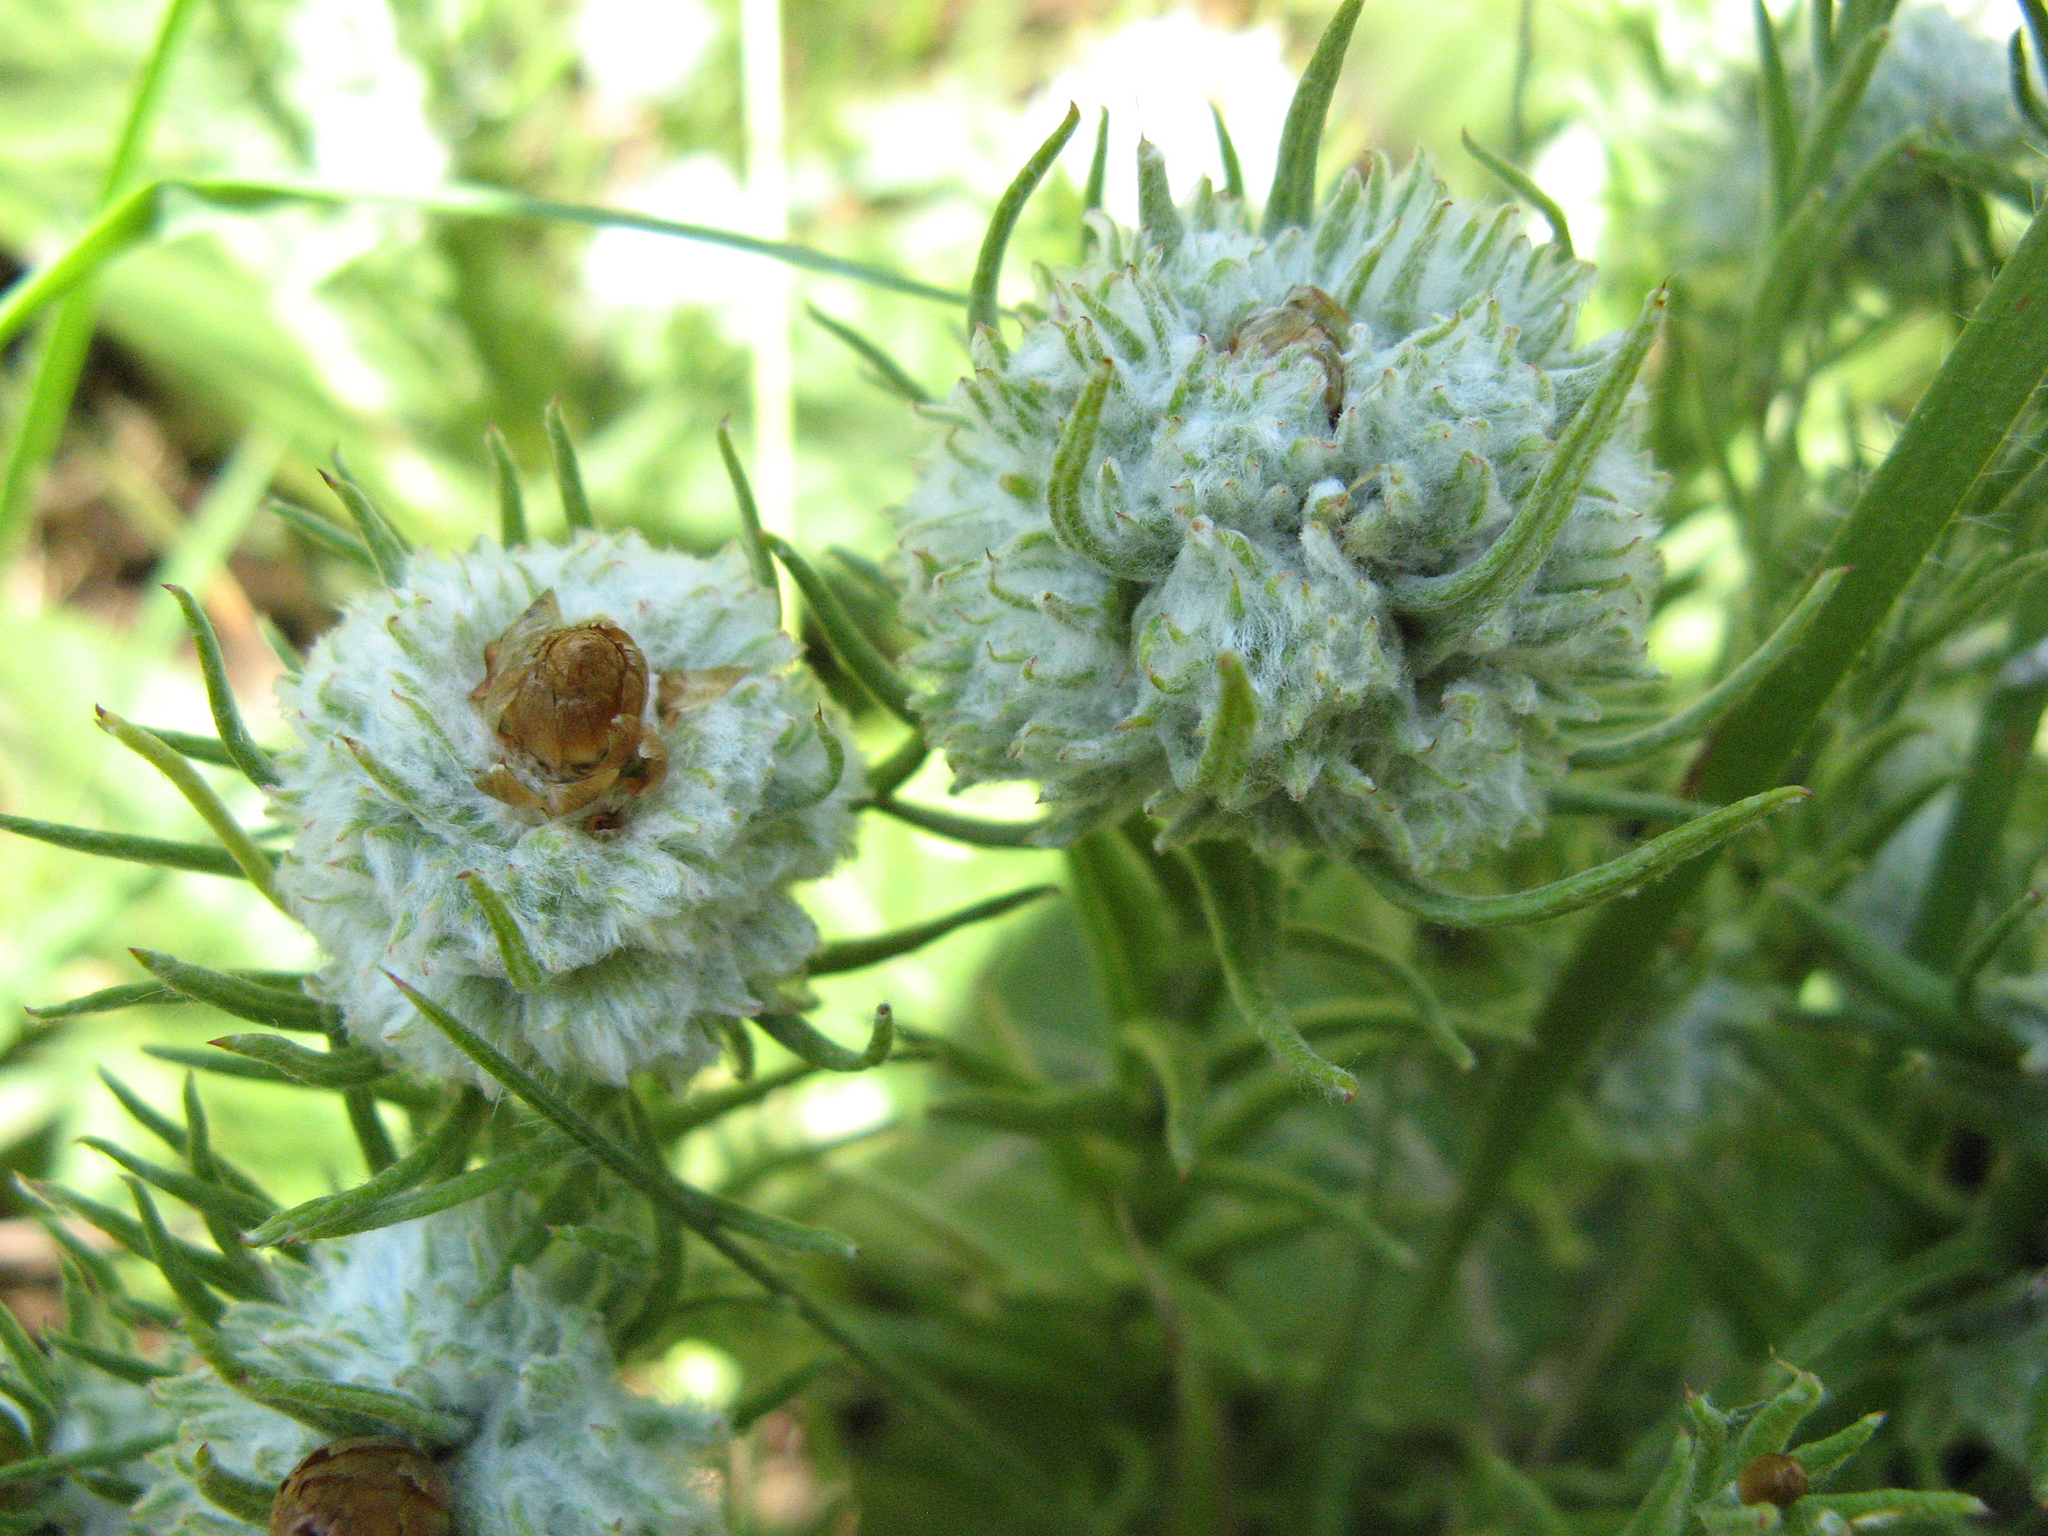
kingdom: Plantae
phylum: Tracheophyta
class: Magnoliopsida
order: Asterales
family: Asteraceae
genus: Helichrysum
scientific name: Helichrysum herbaceum
